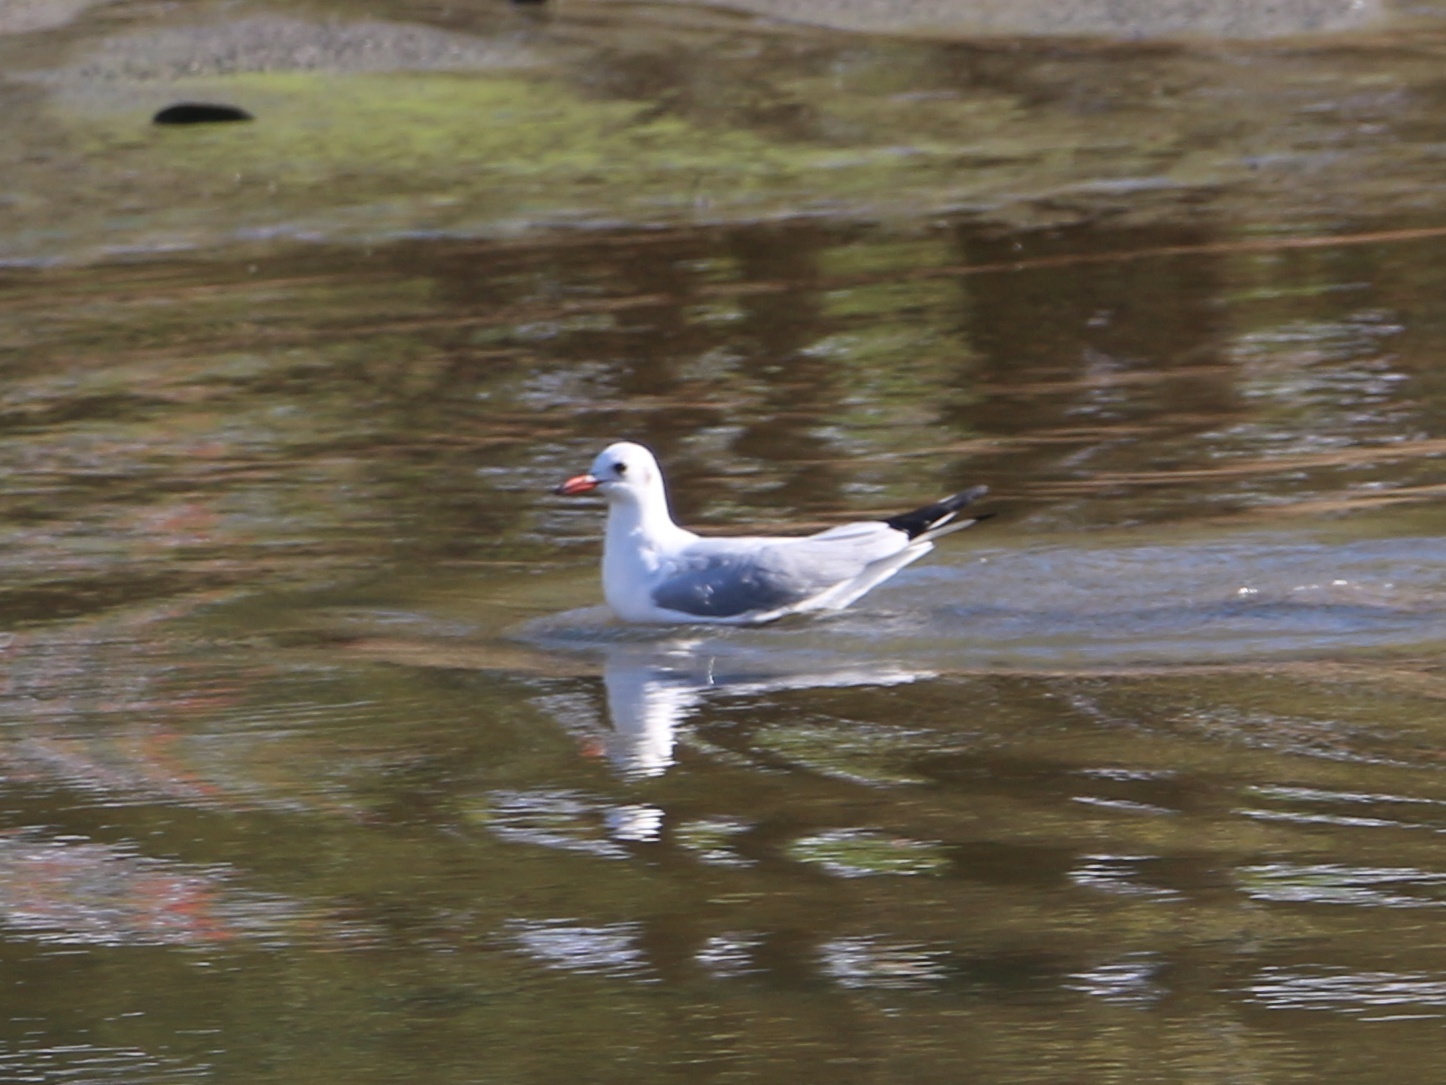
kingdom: Animalia
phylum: Chordata
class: Aves
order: Charadriiformes
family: Laridae
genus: Chroicocephalus
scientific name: Chroicocephalus ridibundus
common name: Black-headed gull
